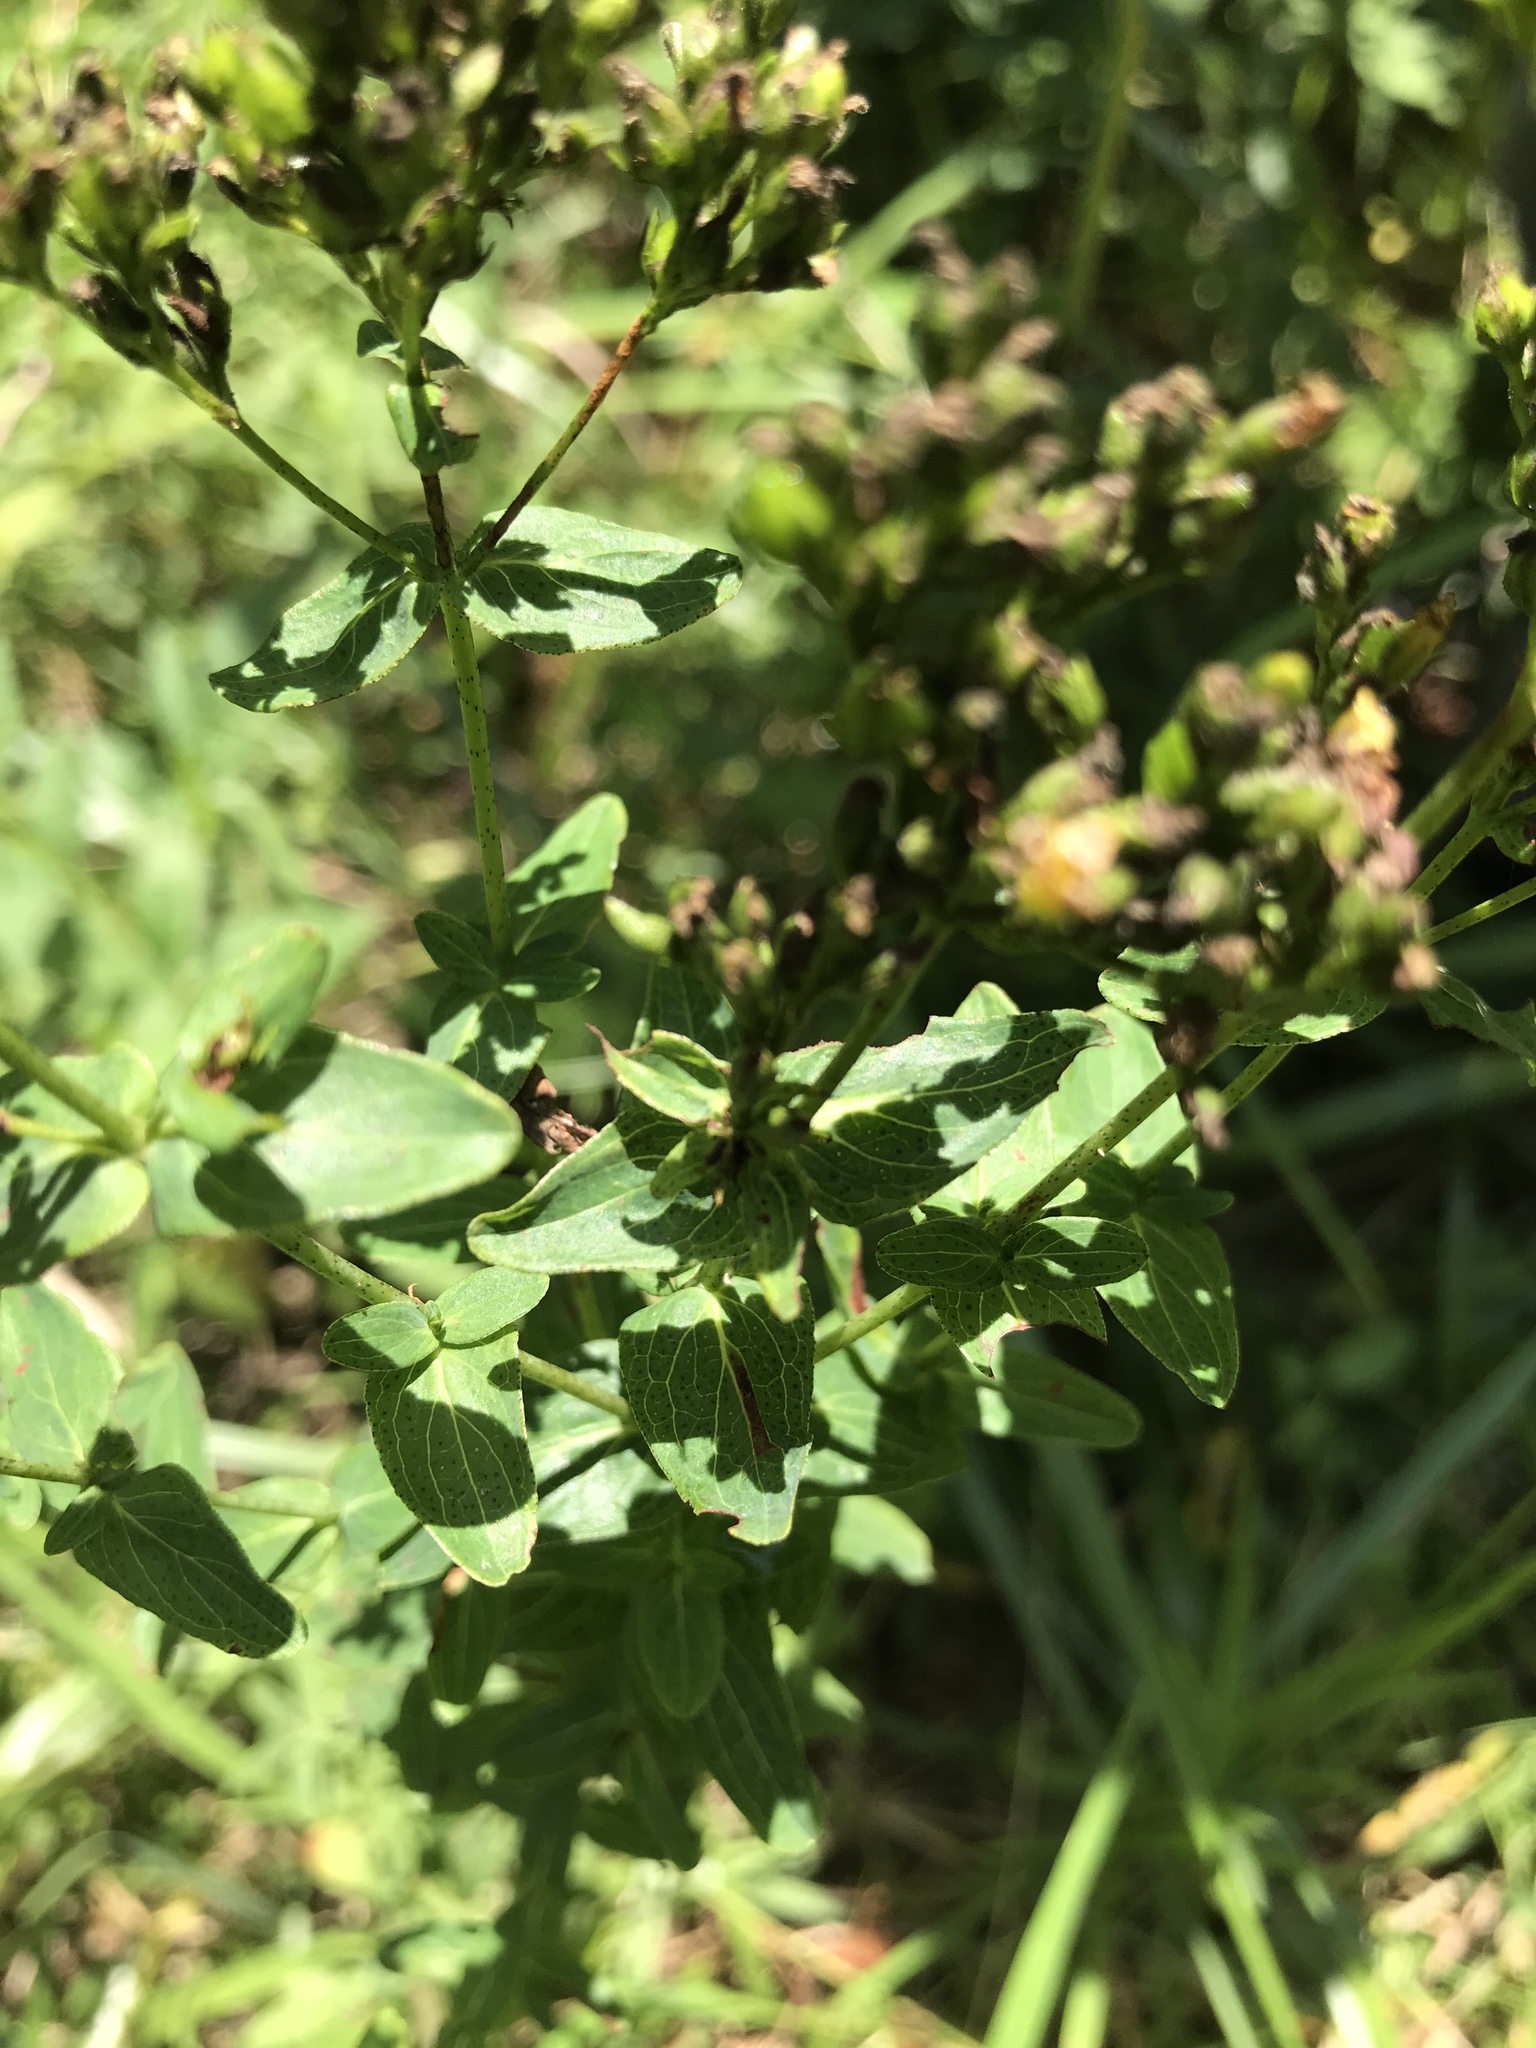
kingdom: Plantae
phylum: Tracheophyta
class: Magnoliopsida
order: Malpighiales
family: Hypericaceae
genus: Hypericum
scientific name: Hypericum punctatum
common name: Spotted st. john's-wort
